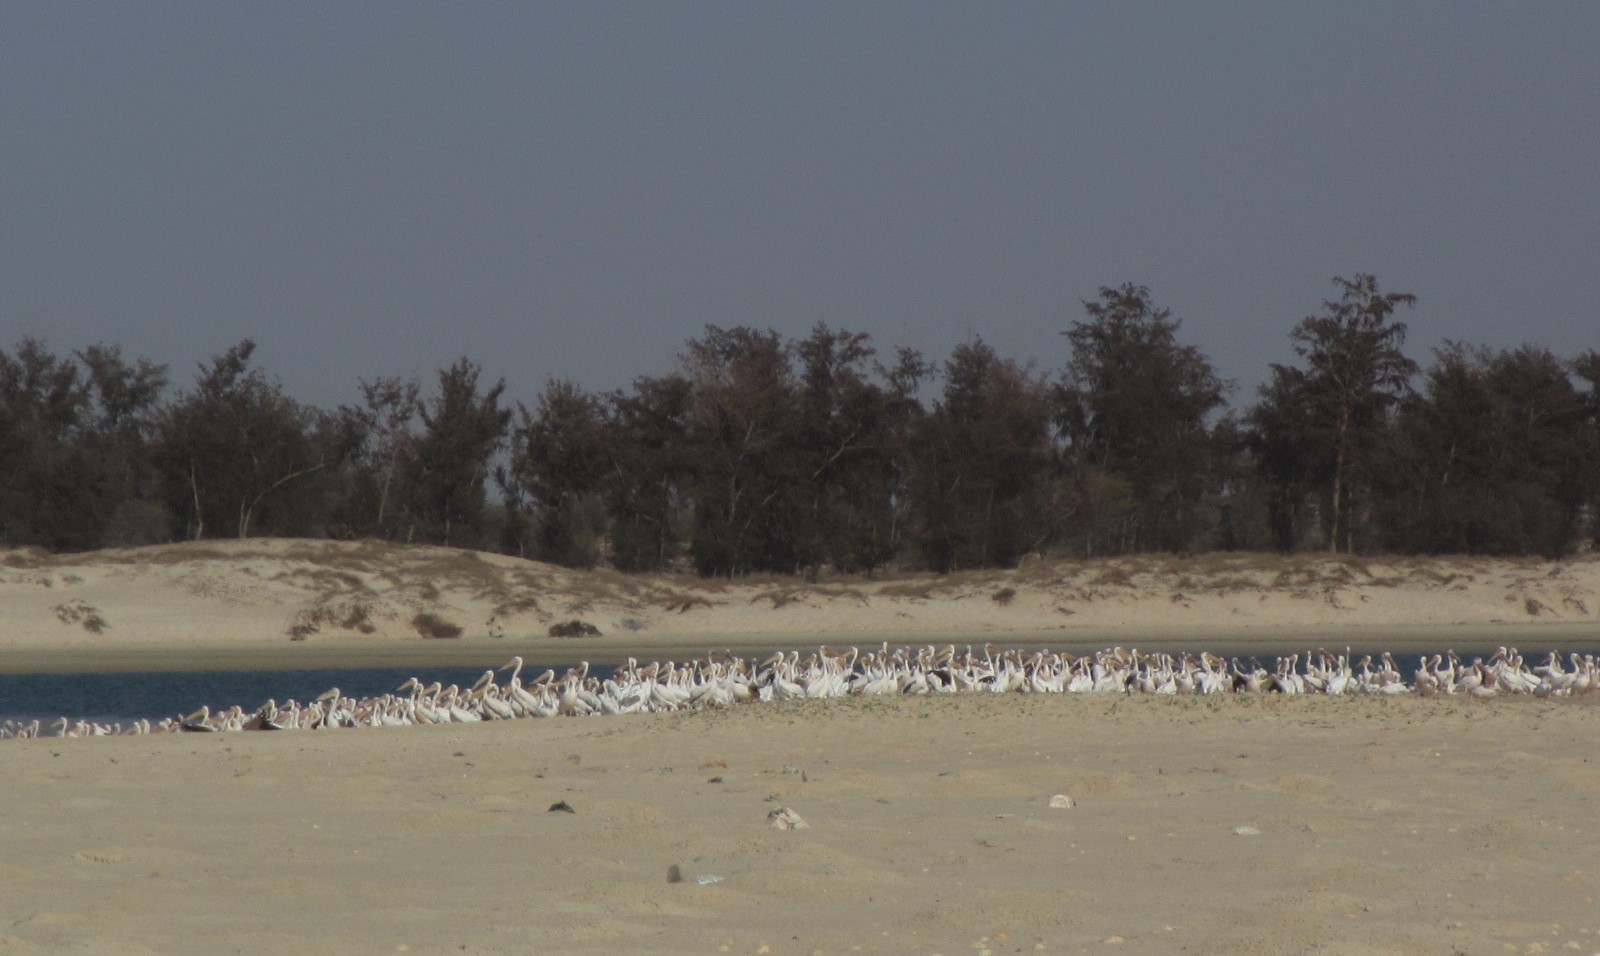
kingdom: Animalia
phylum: Chordata
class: Aves
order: Pelecaniformes
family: Pelecanidae
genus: Pelecanus
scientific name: Pelecanus onocrotalus
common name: Great white pelican
